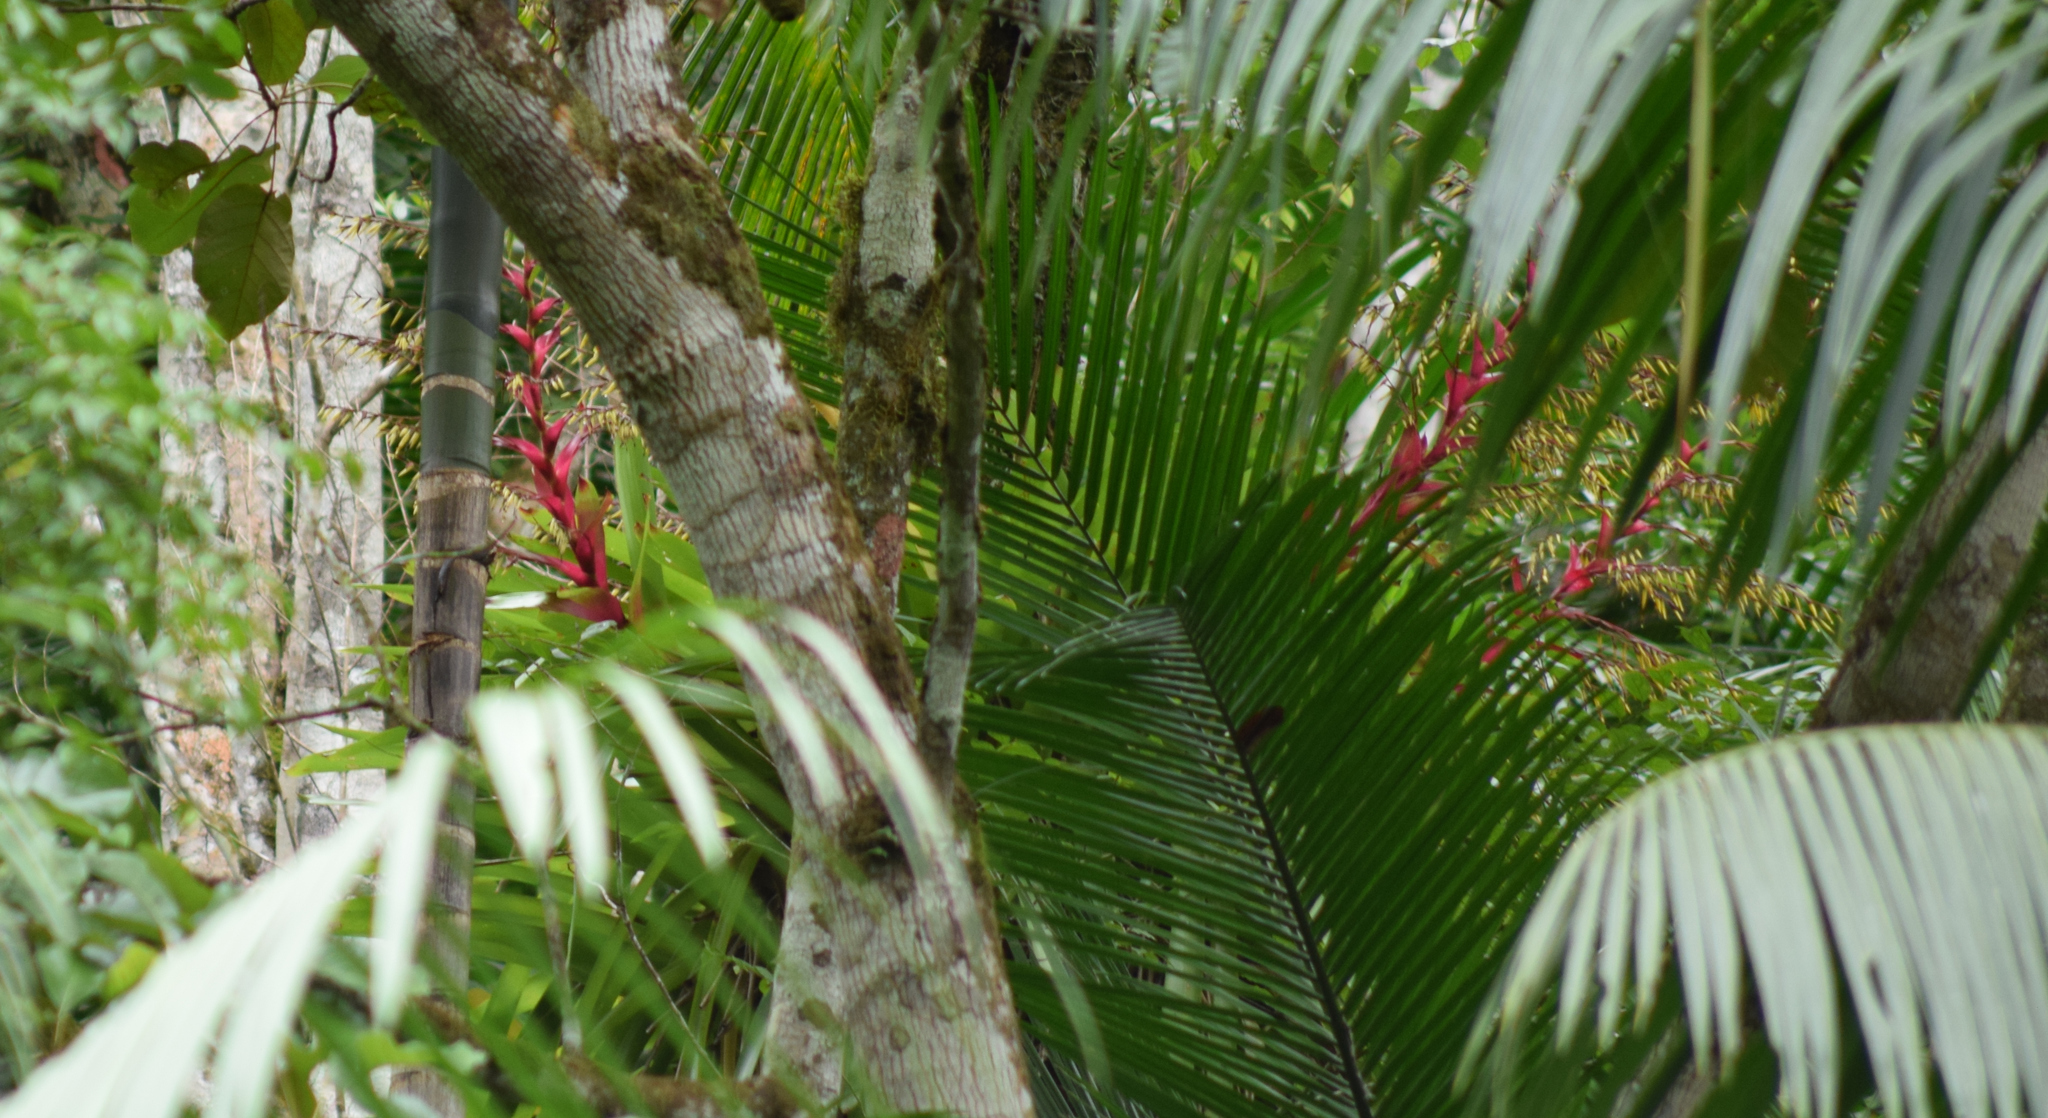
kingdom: Plantae
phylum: Tracheophyta
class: Liliopsida
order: Poales
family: Bromeliaceae
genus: Vriesea
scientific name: Vriesea philippocoburgi
